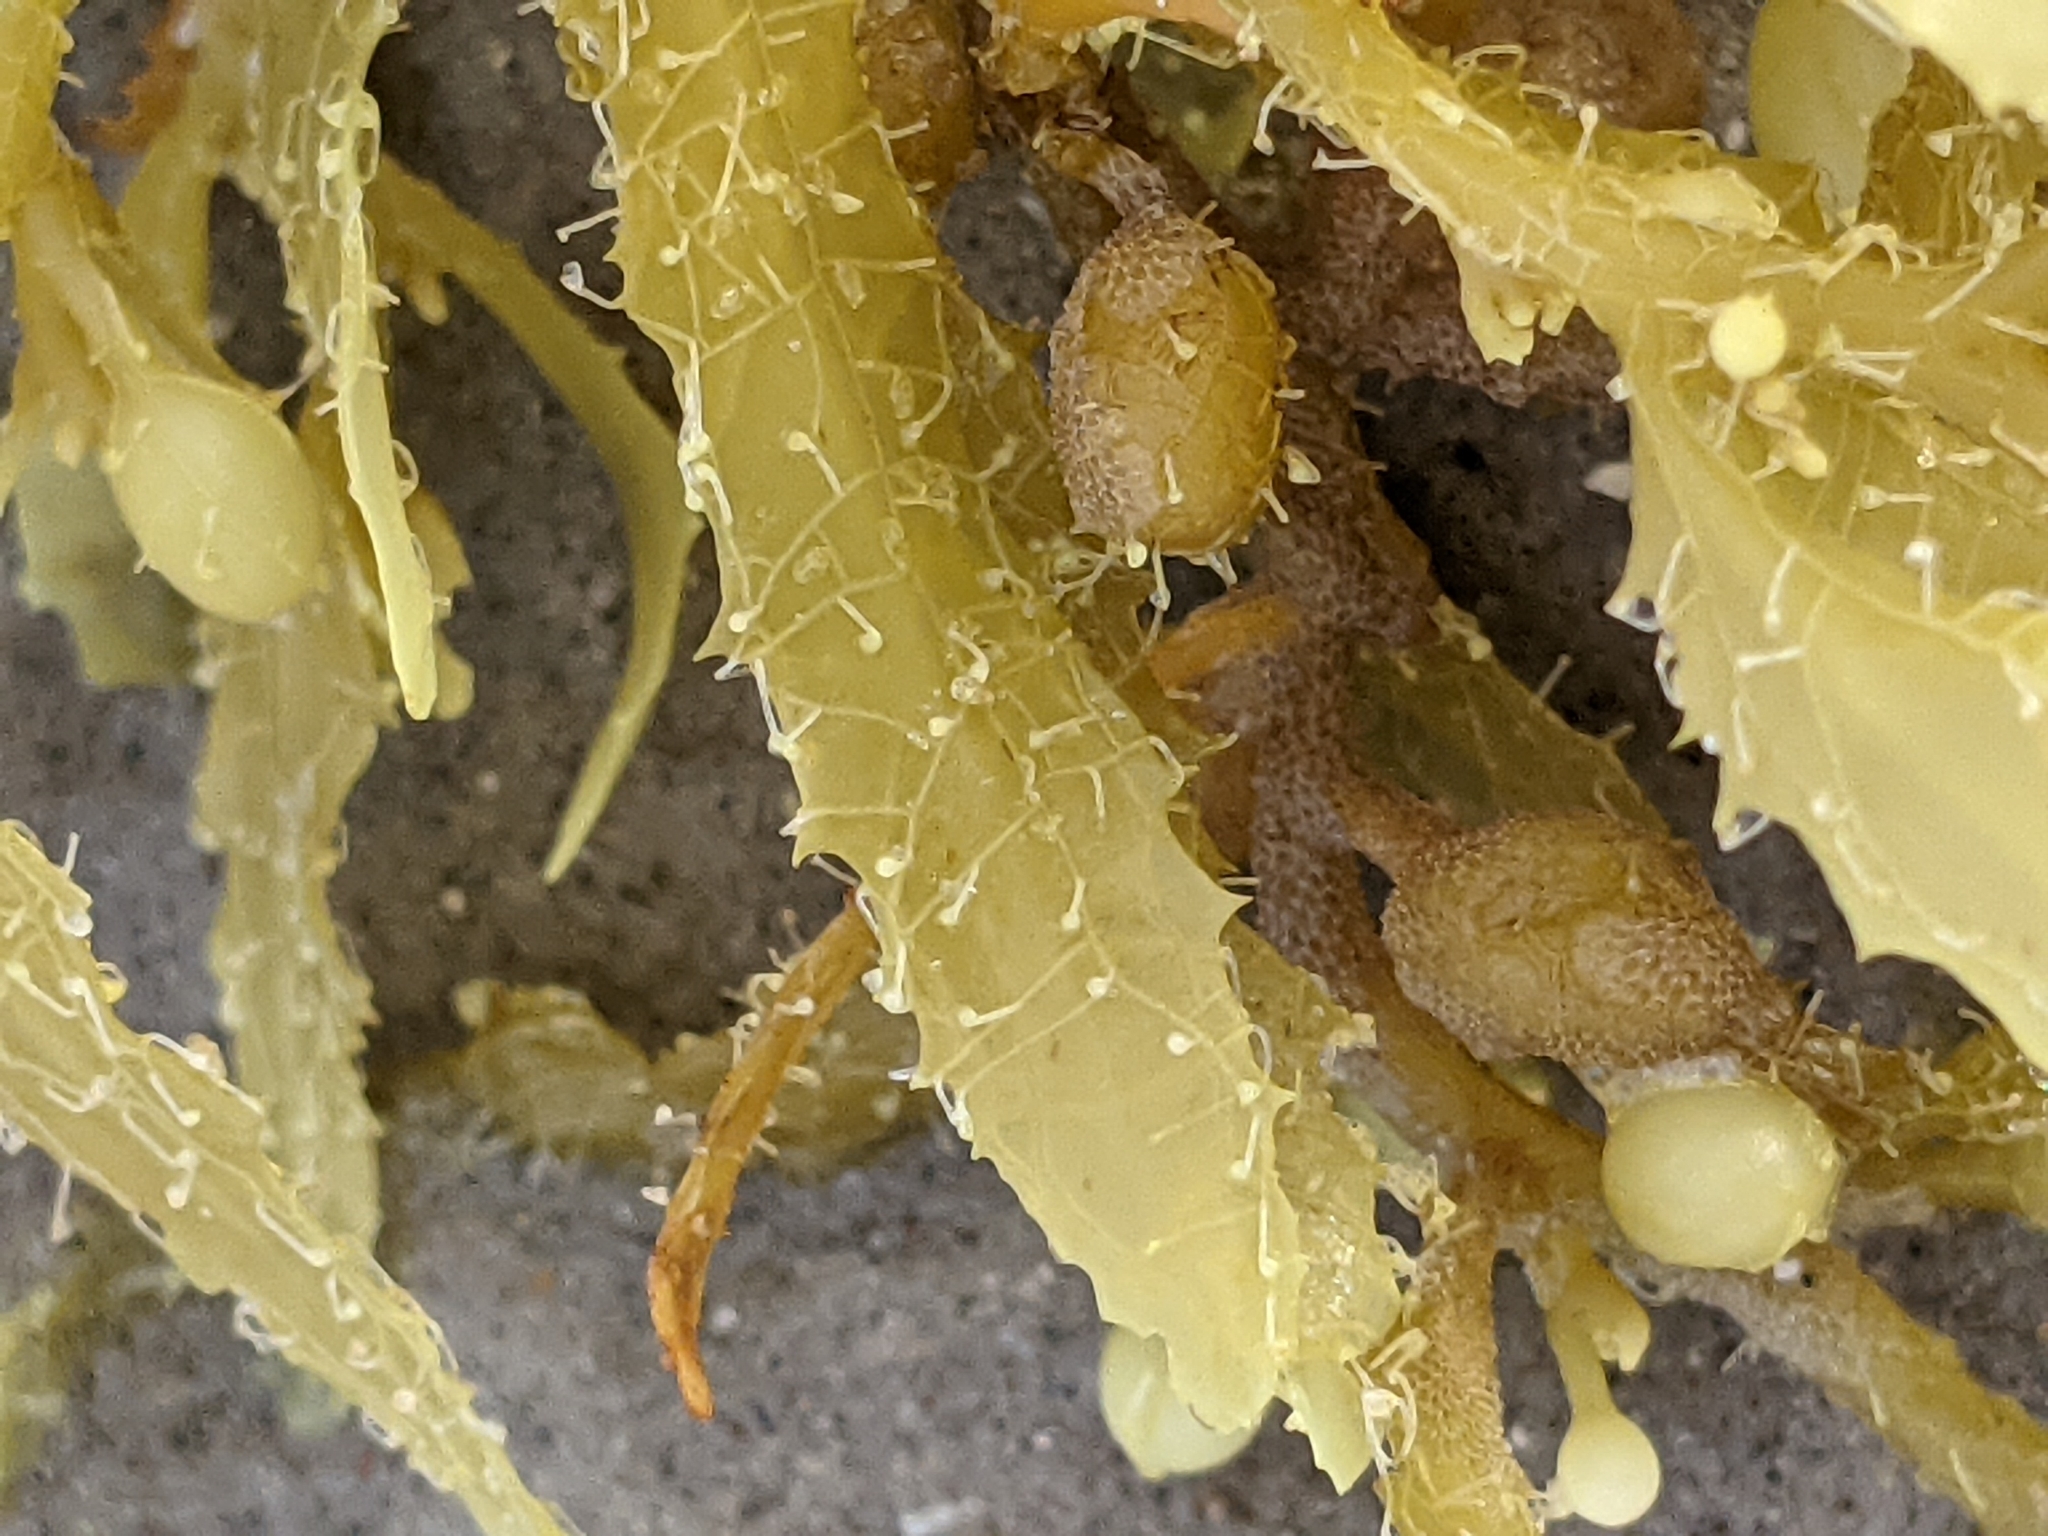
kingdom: Chromista
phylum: Ochrophyta
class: Phaeophyceae
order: Fucales
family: Sargassaceae
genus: Sargassum
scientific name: Sargassum fluitans
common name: Sargassum seaweed
